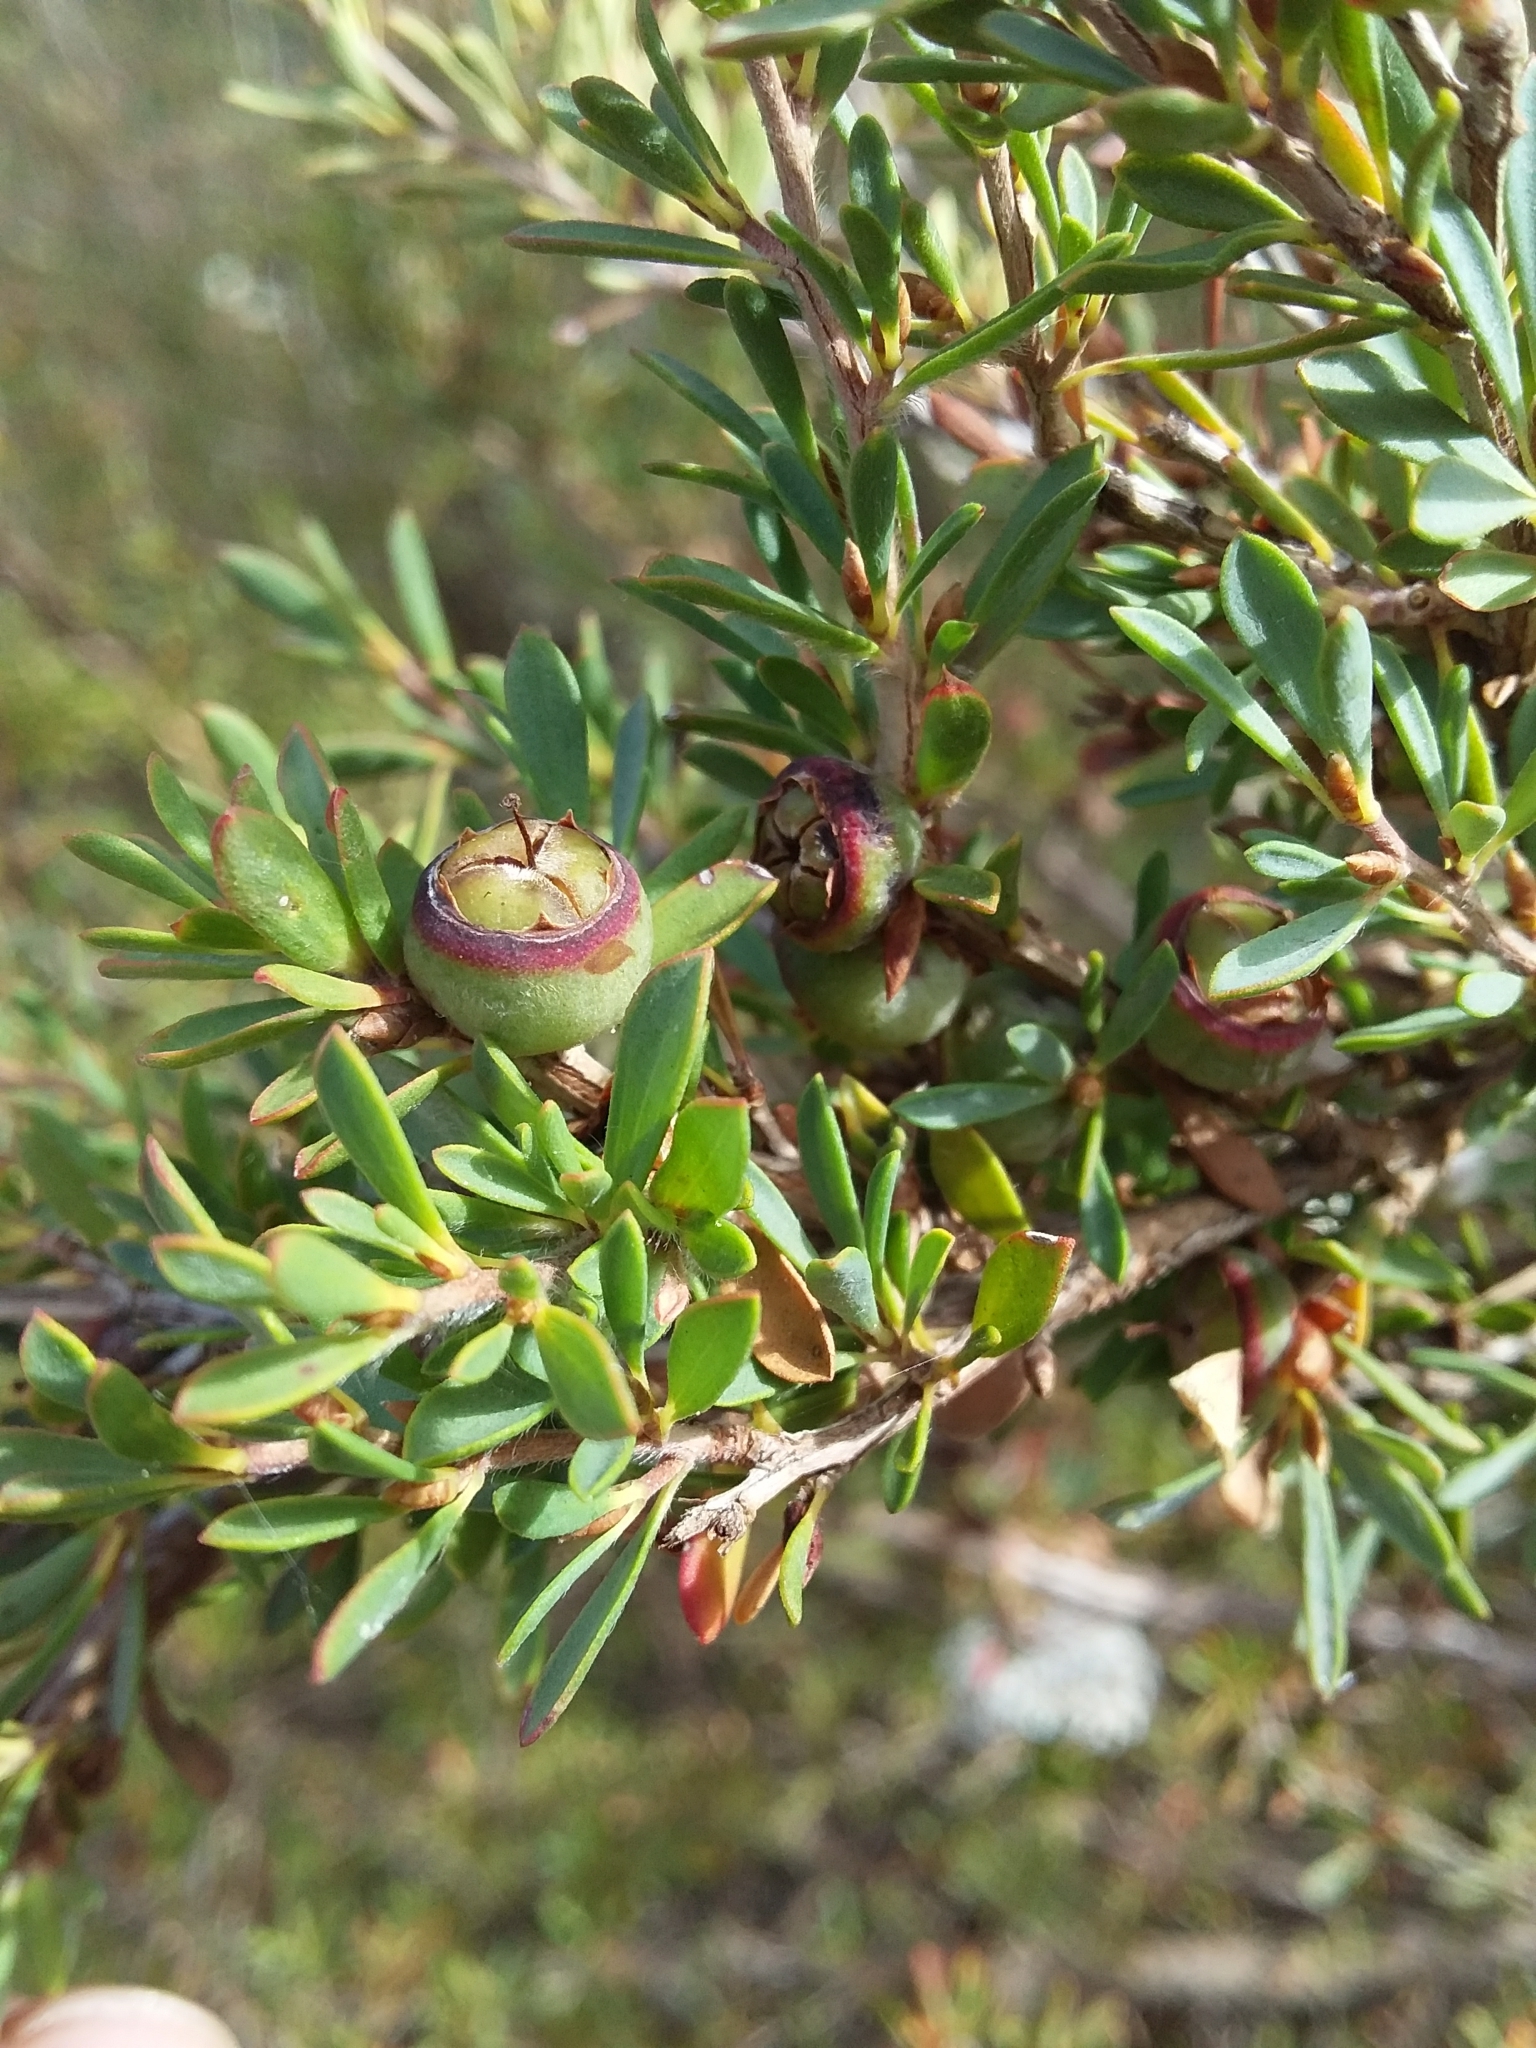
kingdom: Plantae
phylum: Tracheophyta
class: Magnoliopsida
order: Myrtales
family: Myrtaceae
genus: Leptospermum
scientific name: Leptospermum myrsinoides
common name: Heath teatree
